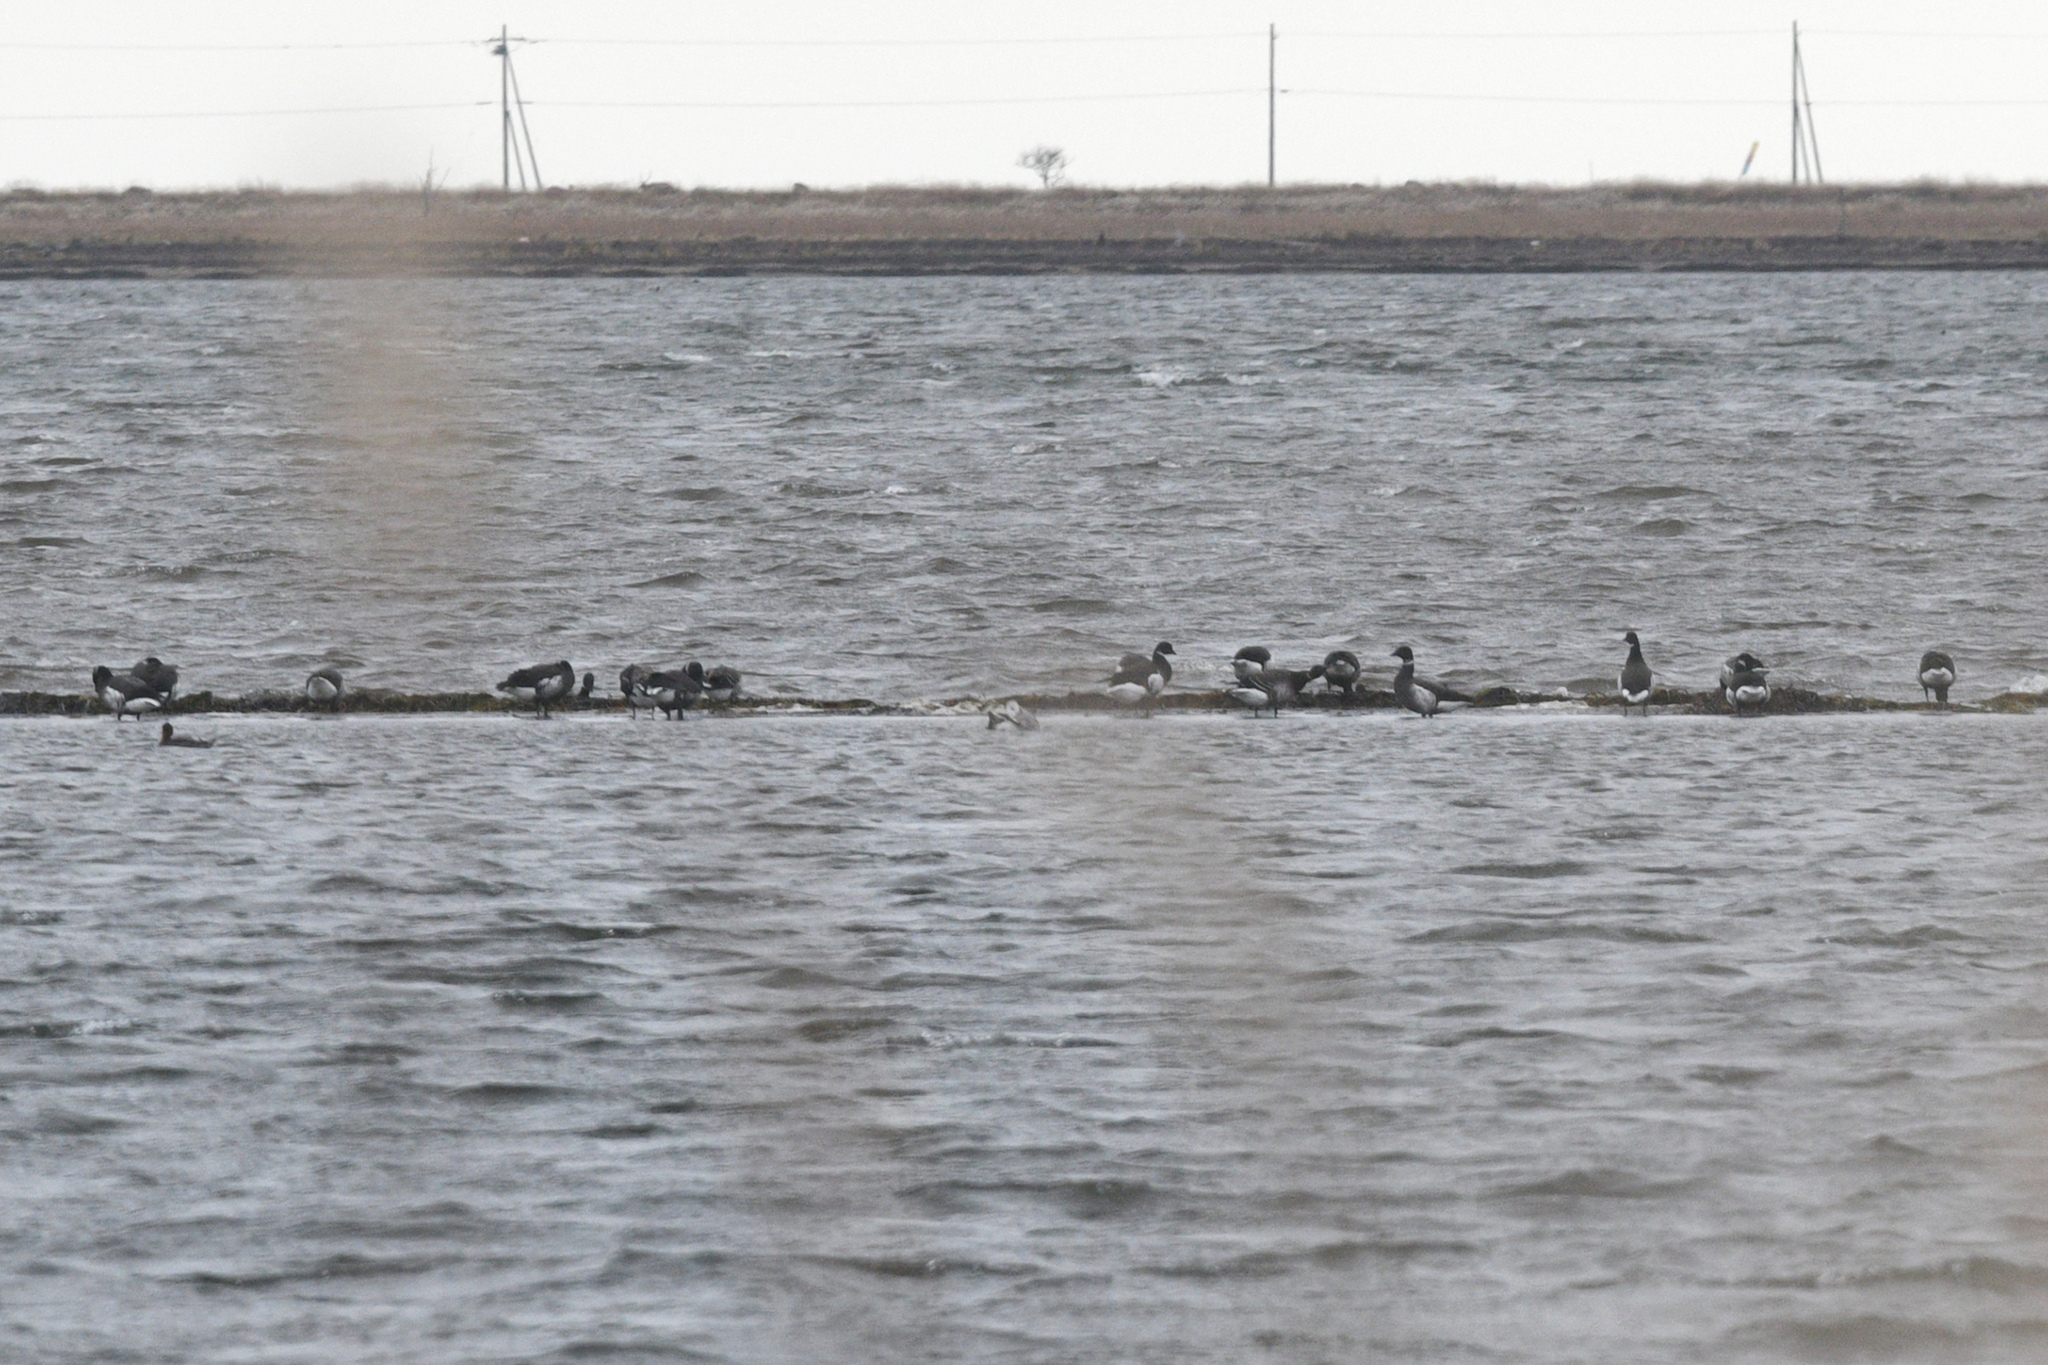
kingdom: Animalia
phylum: Chordata
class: Aves
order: Anseriformes
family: Anatidae
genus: Branta
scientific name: Branta bernicla
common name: Brant goose
